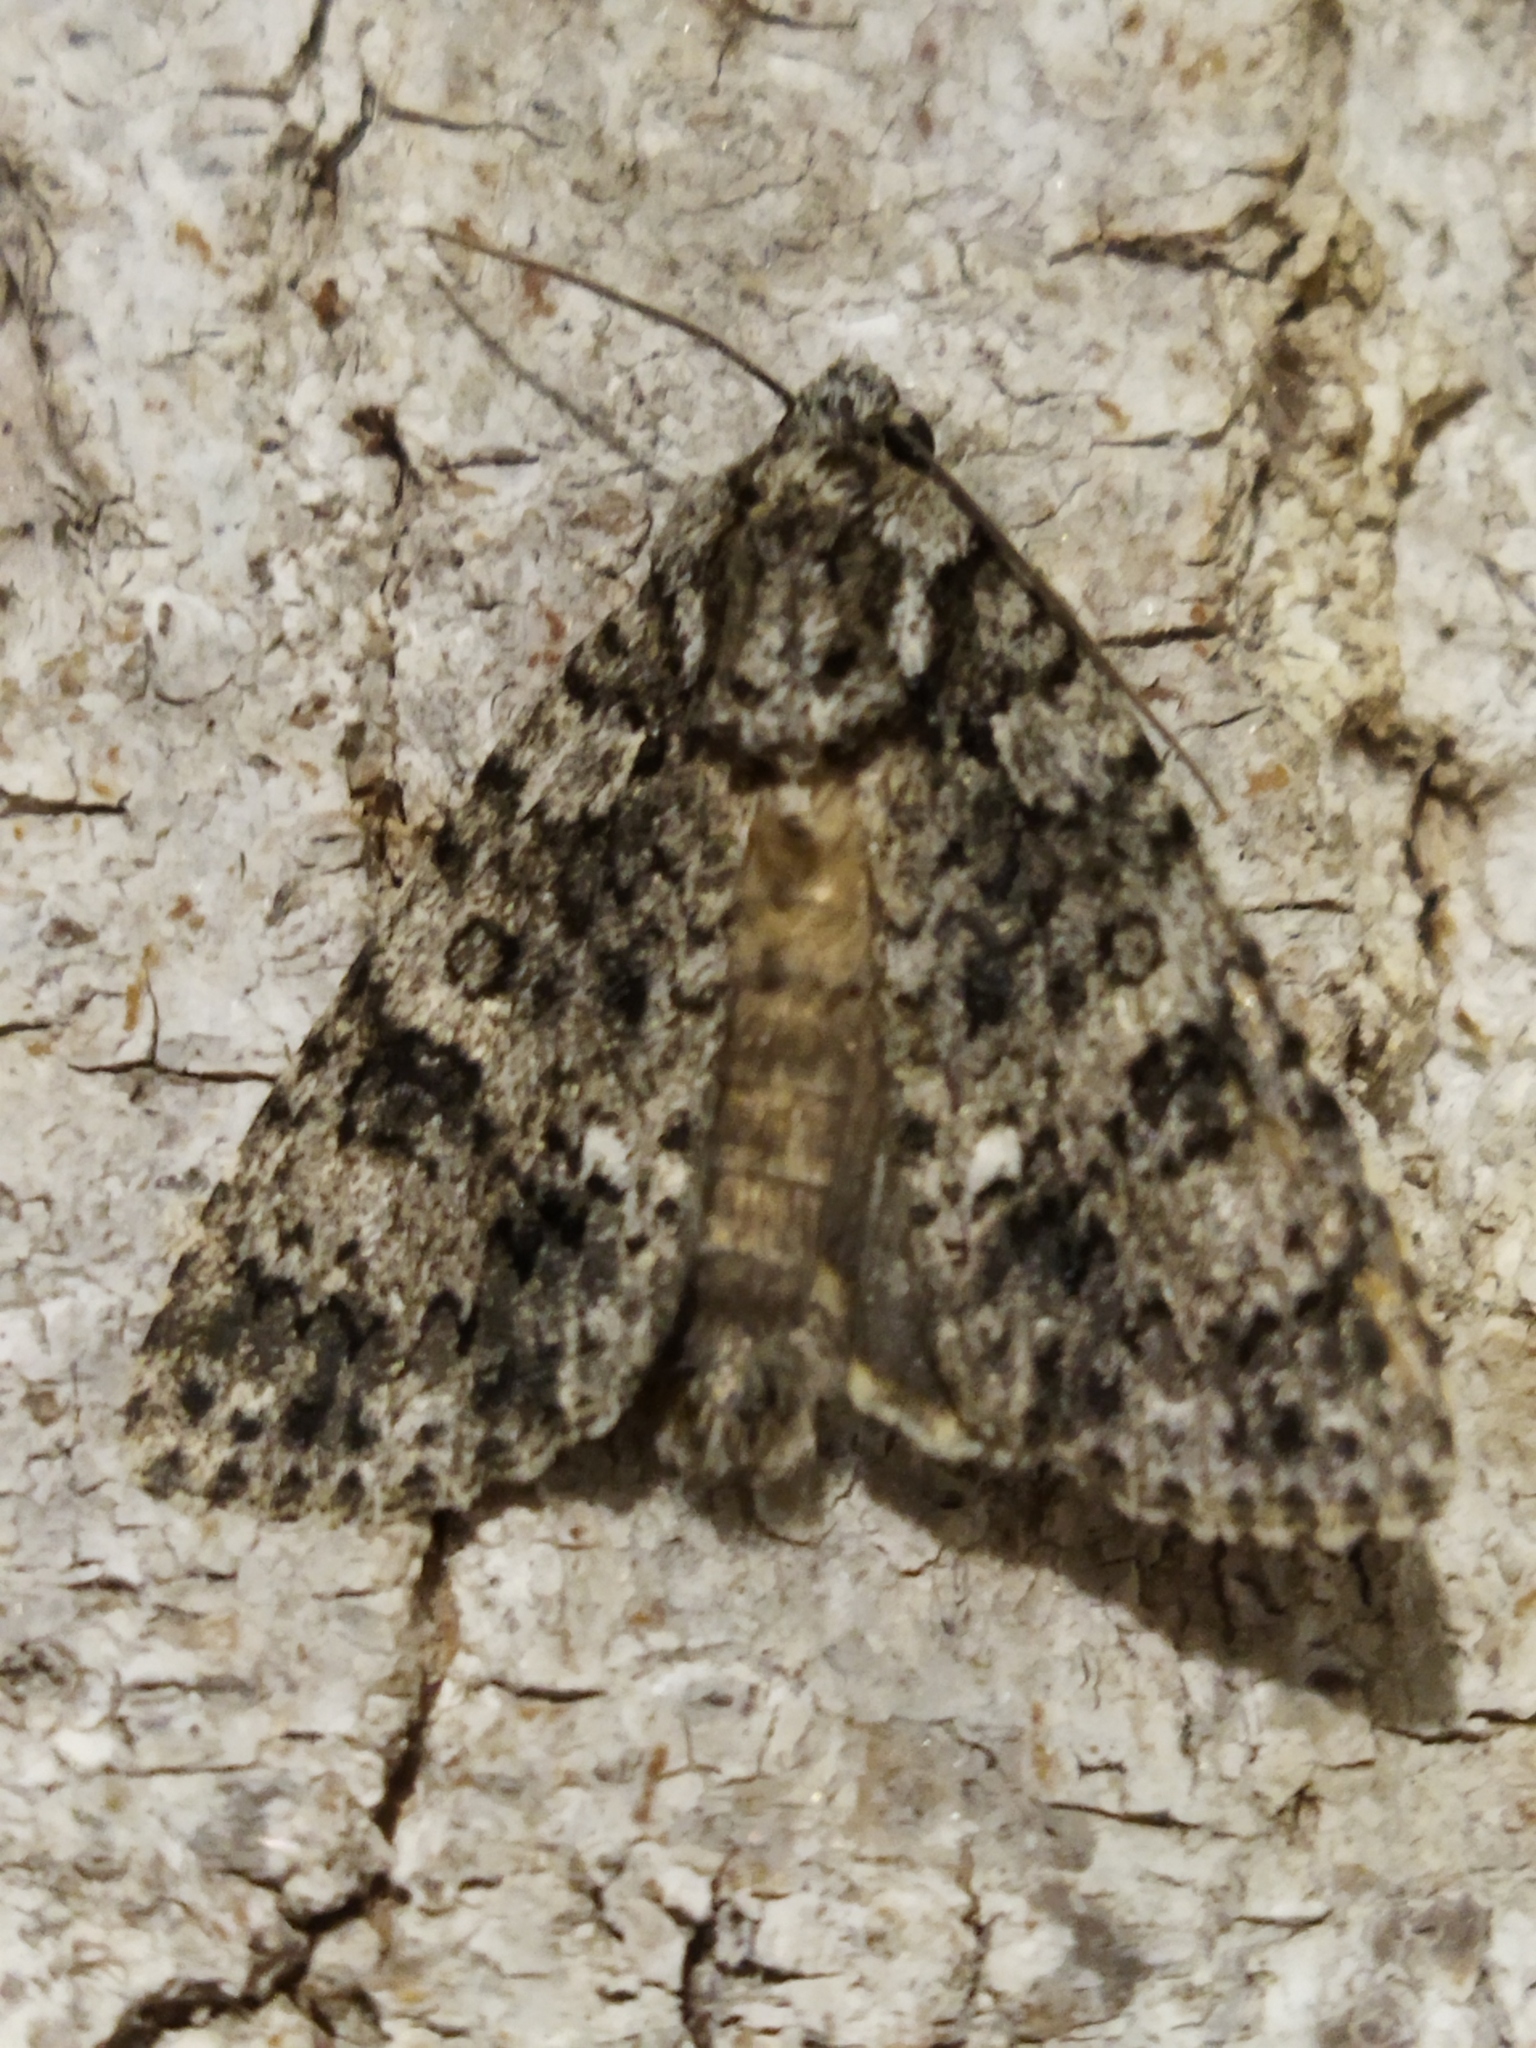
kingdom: Animalia
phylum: Arthropoda
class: Insecta
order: Lepidoptera
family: Noctuidae
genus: Acronicta
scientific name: Acronicta rumicis
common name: Knot grass
